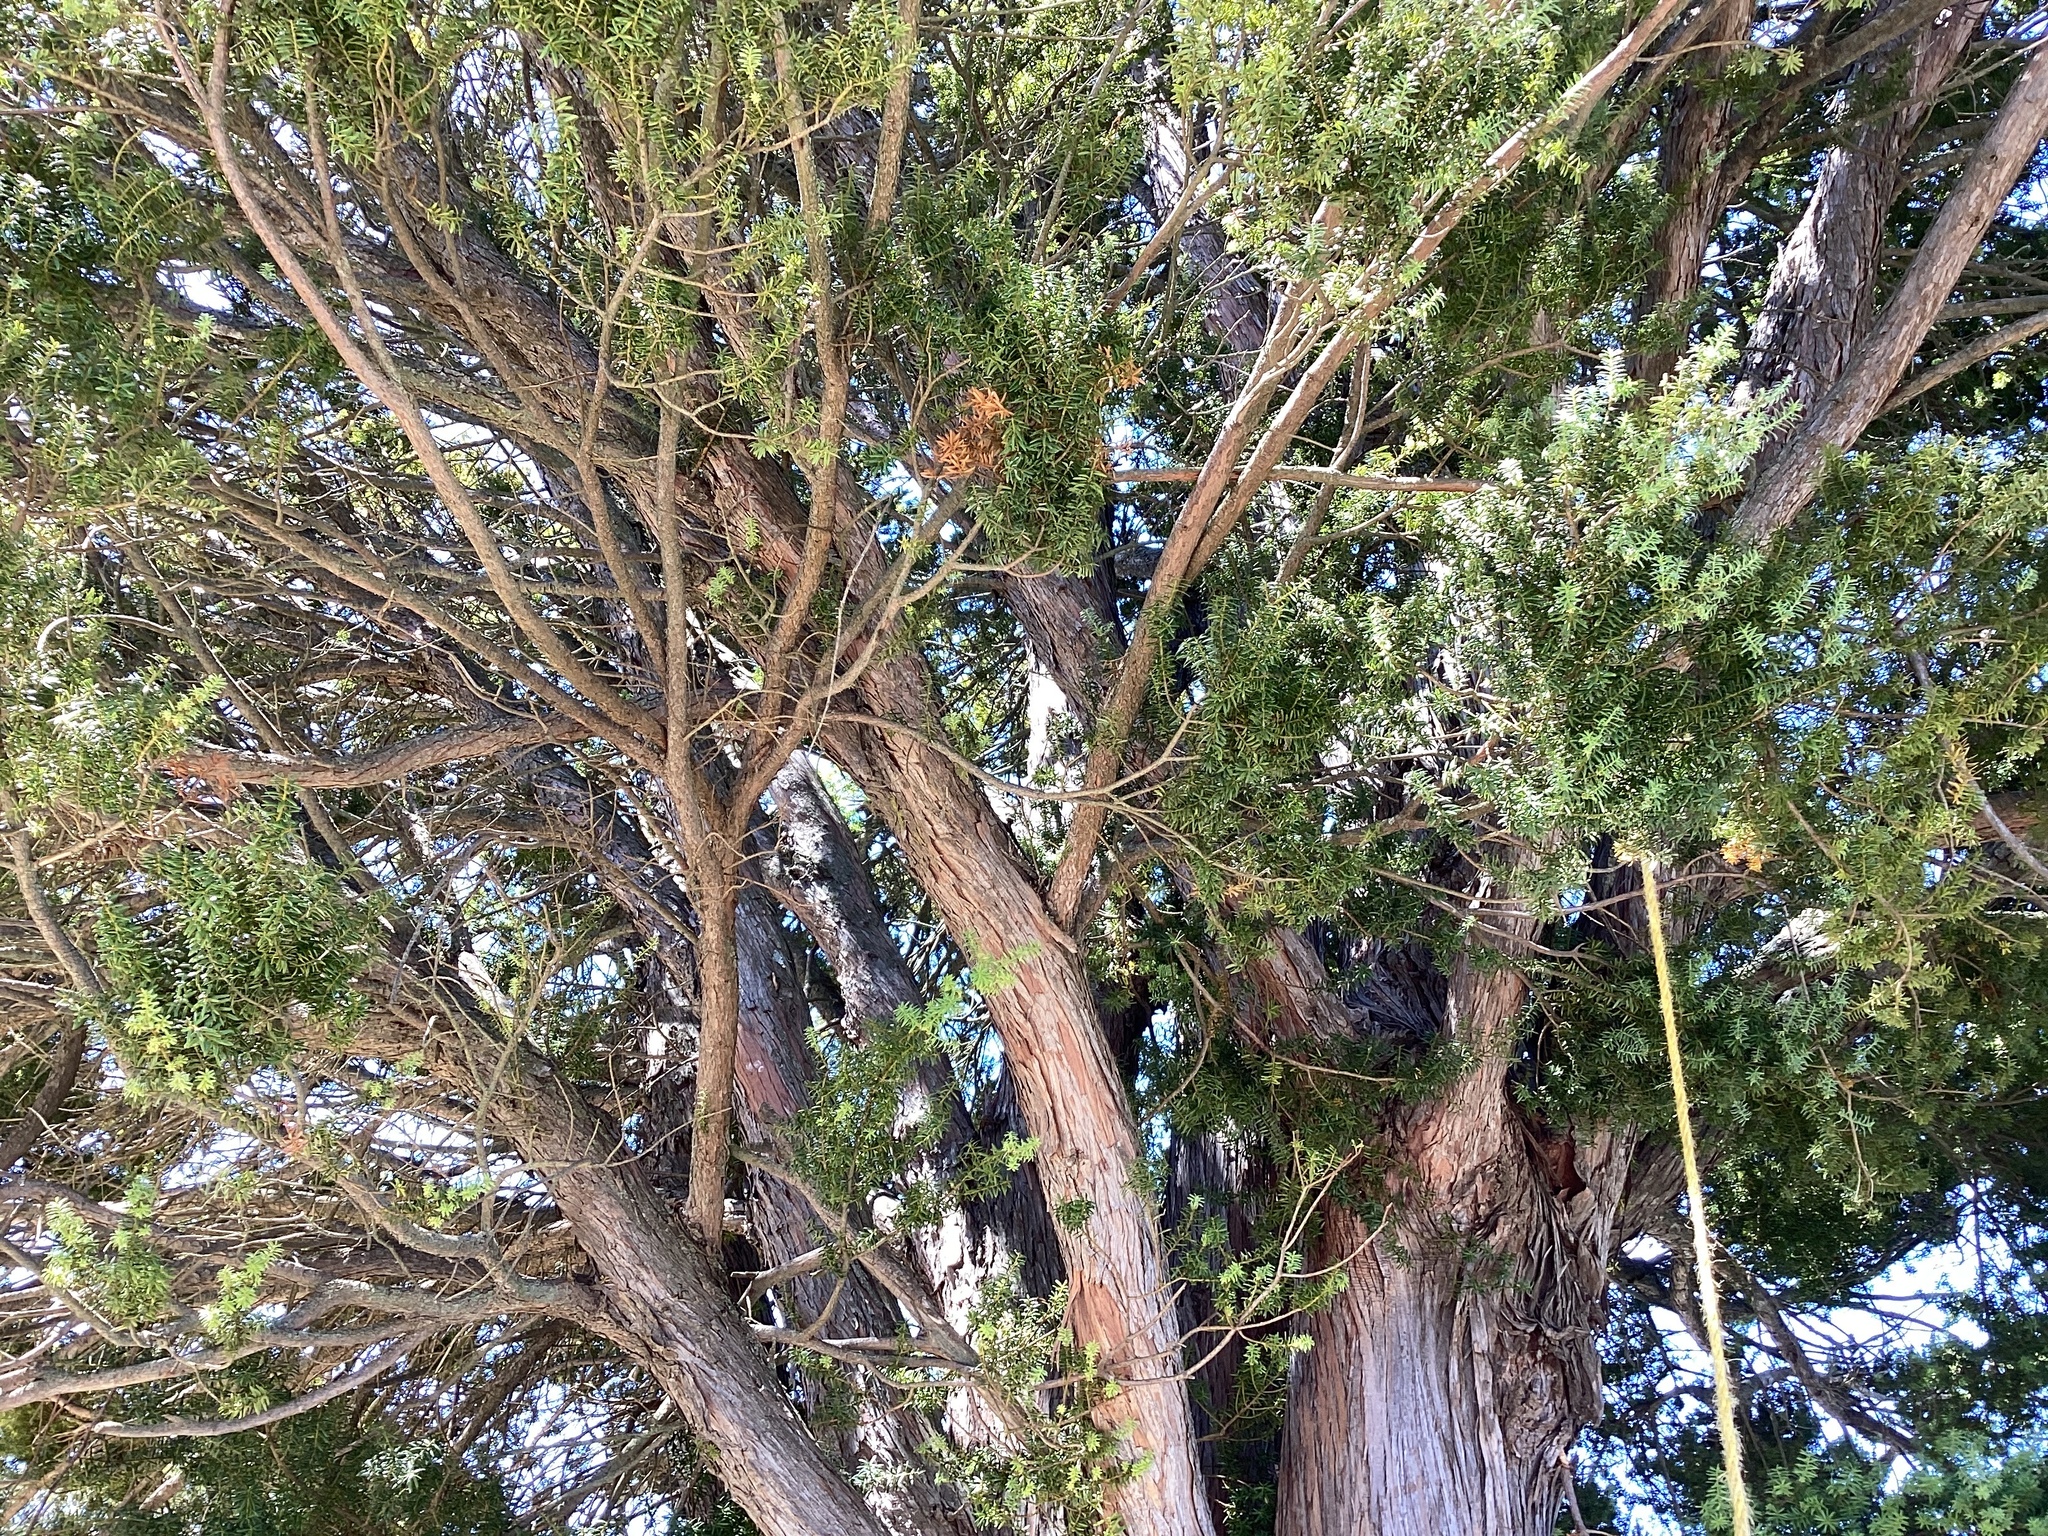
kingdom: Plantae
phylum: Tracheophyta
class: Pinopsida
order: Pinales
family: Podocarpaceae
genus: Podocarpus
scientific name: Podocarpus totara
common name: Totara
